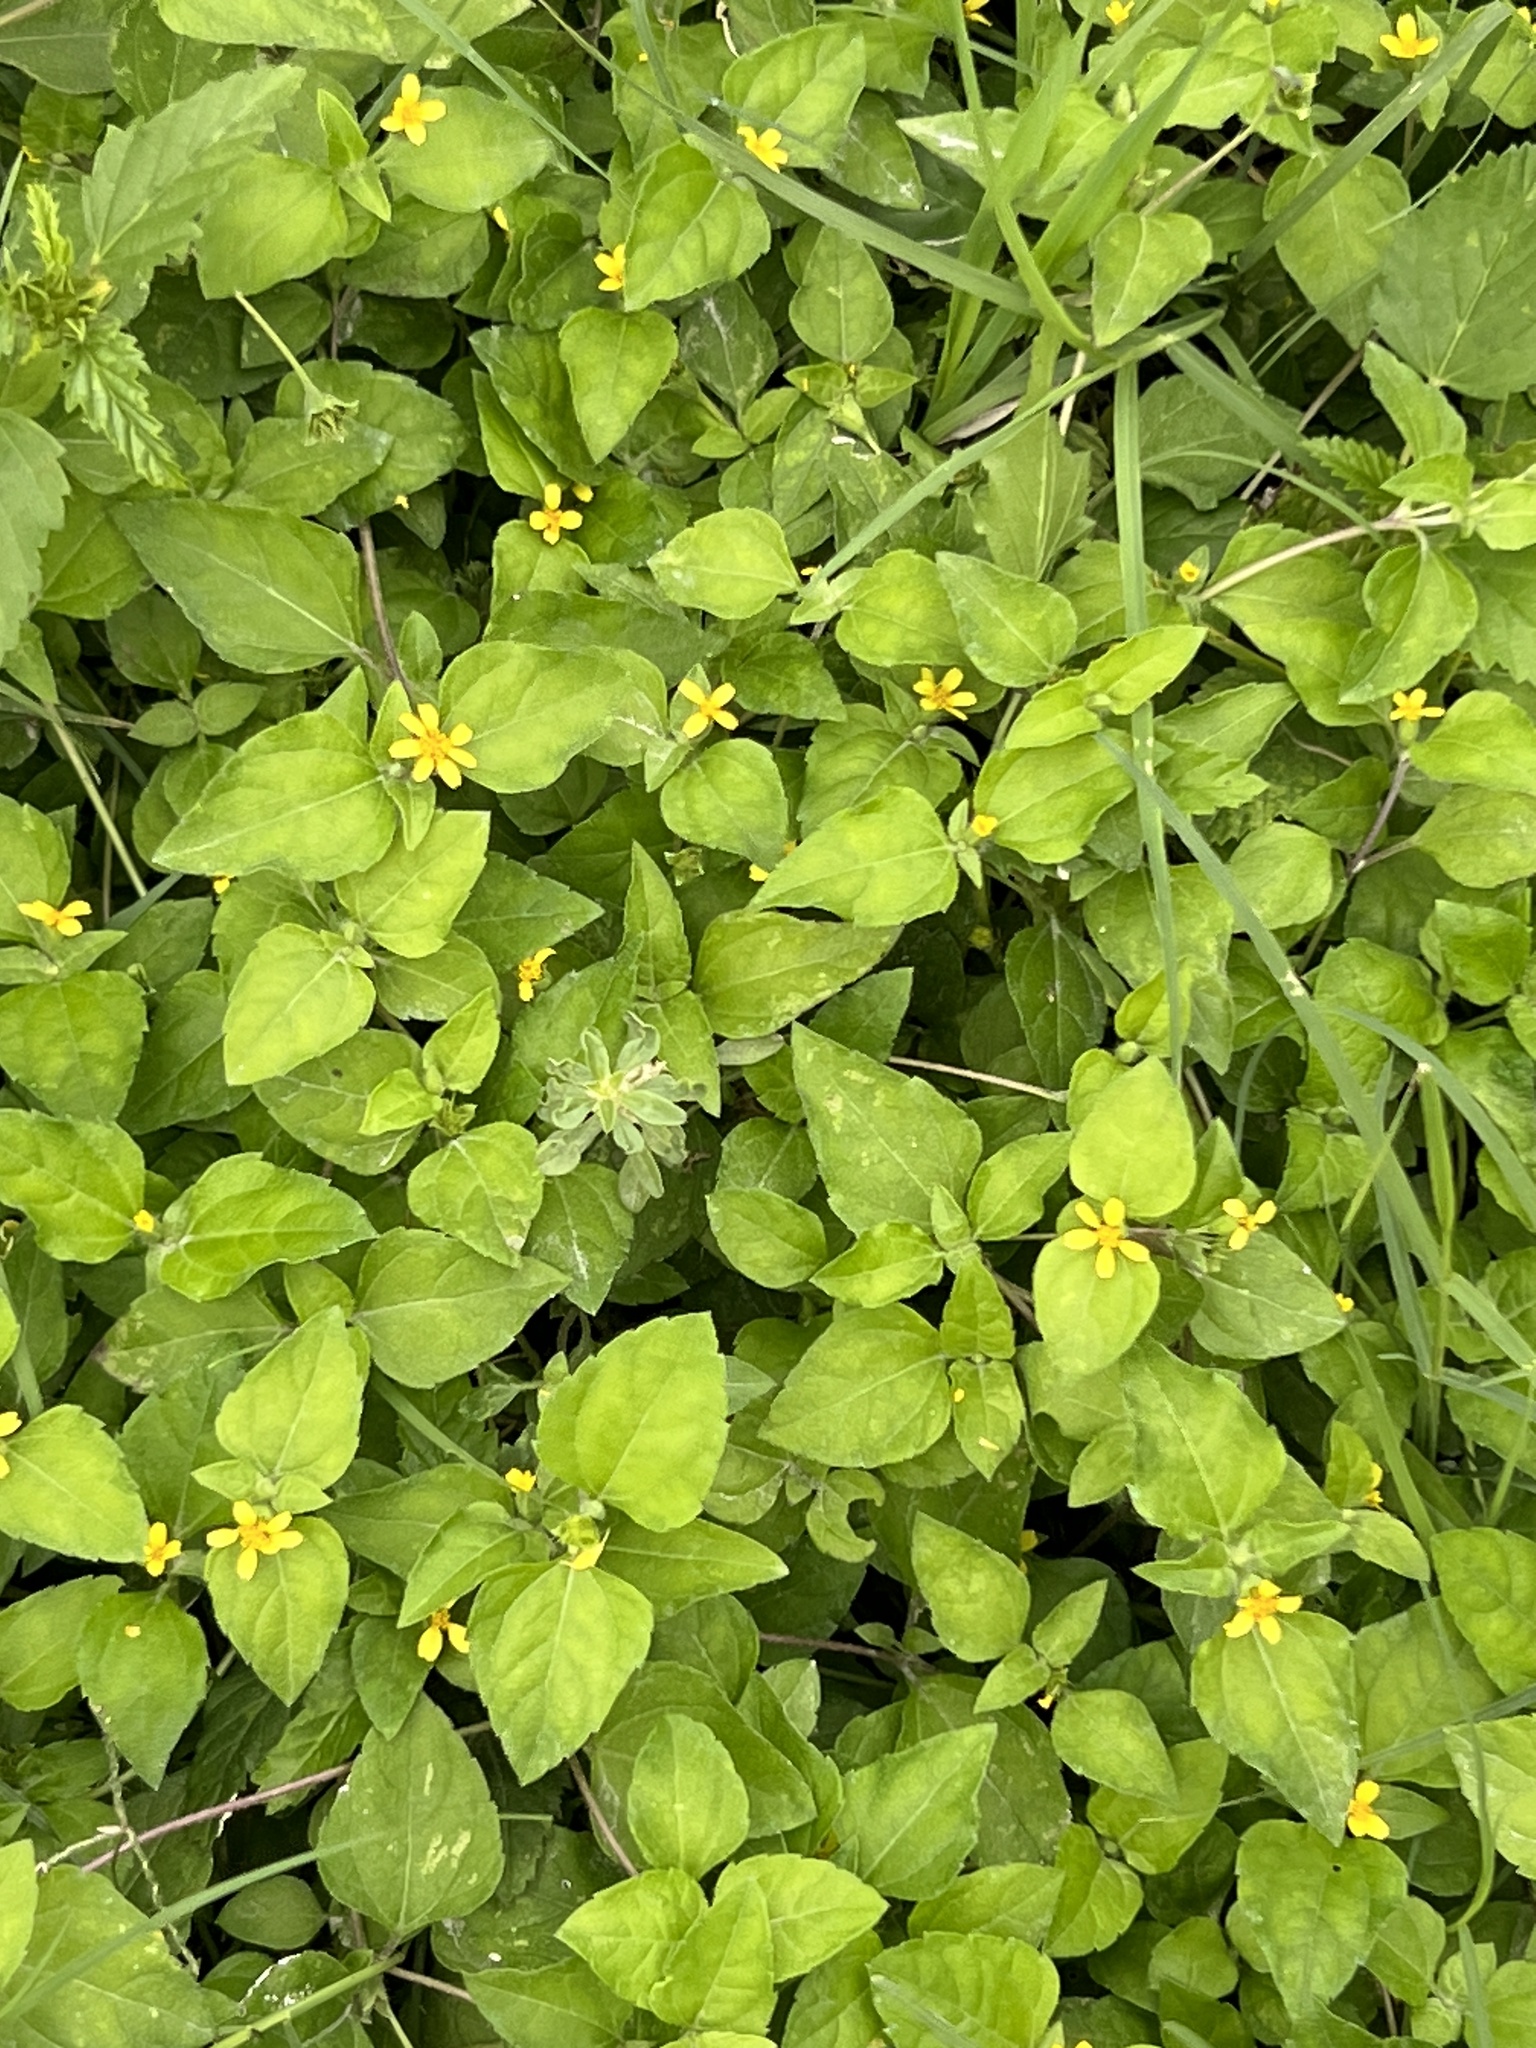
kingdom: Plantae
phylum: Tracheophyta
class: Magnoliopsida
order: Asterales
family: Asteraceae
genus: Calyptocarpus
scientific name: Calyptocarpus vialis
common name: Straggler daisy
